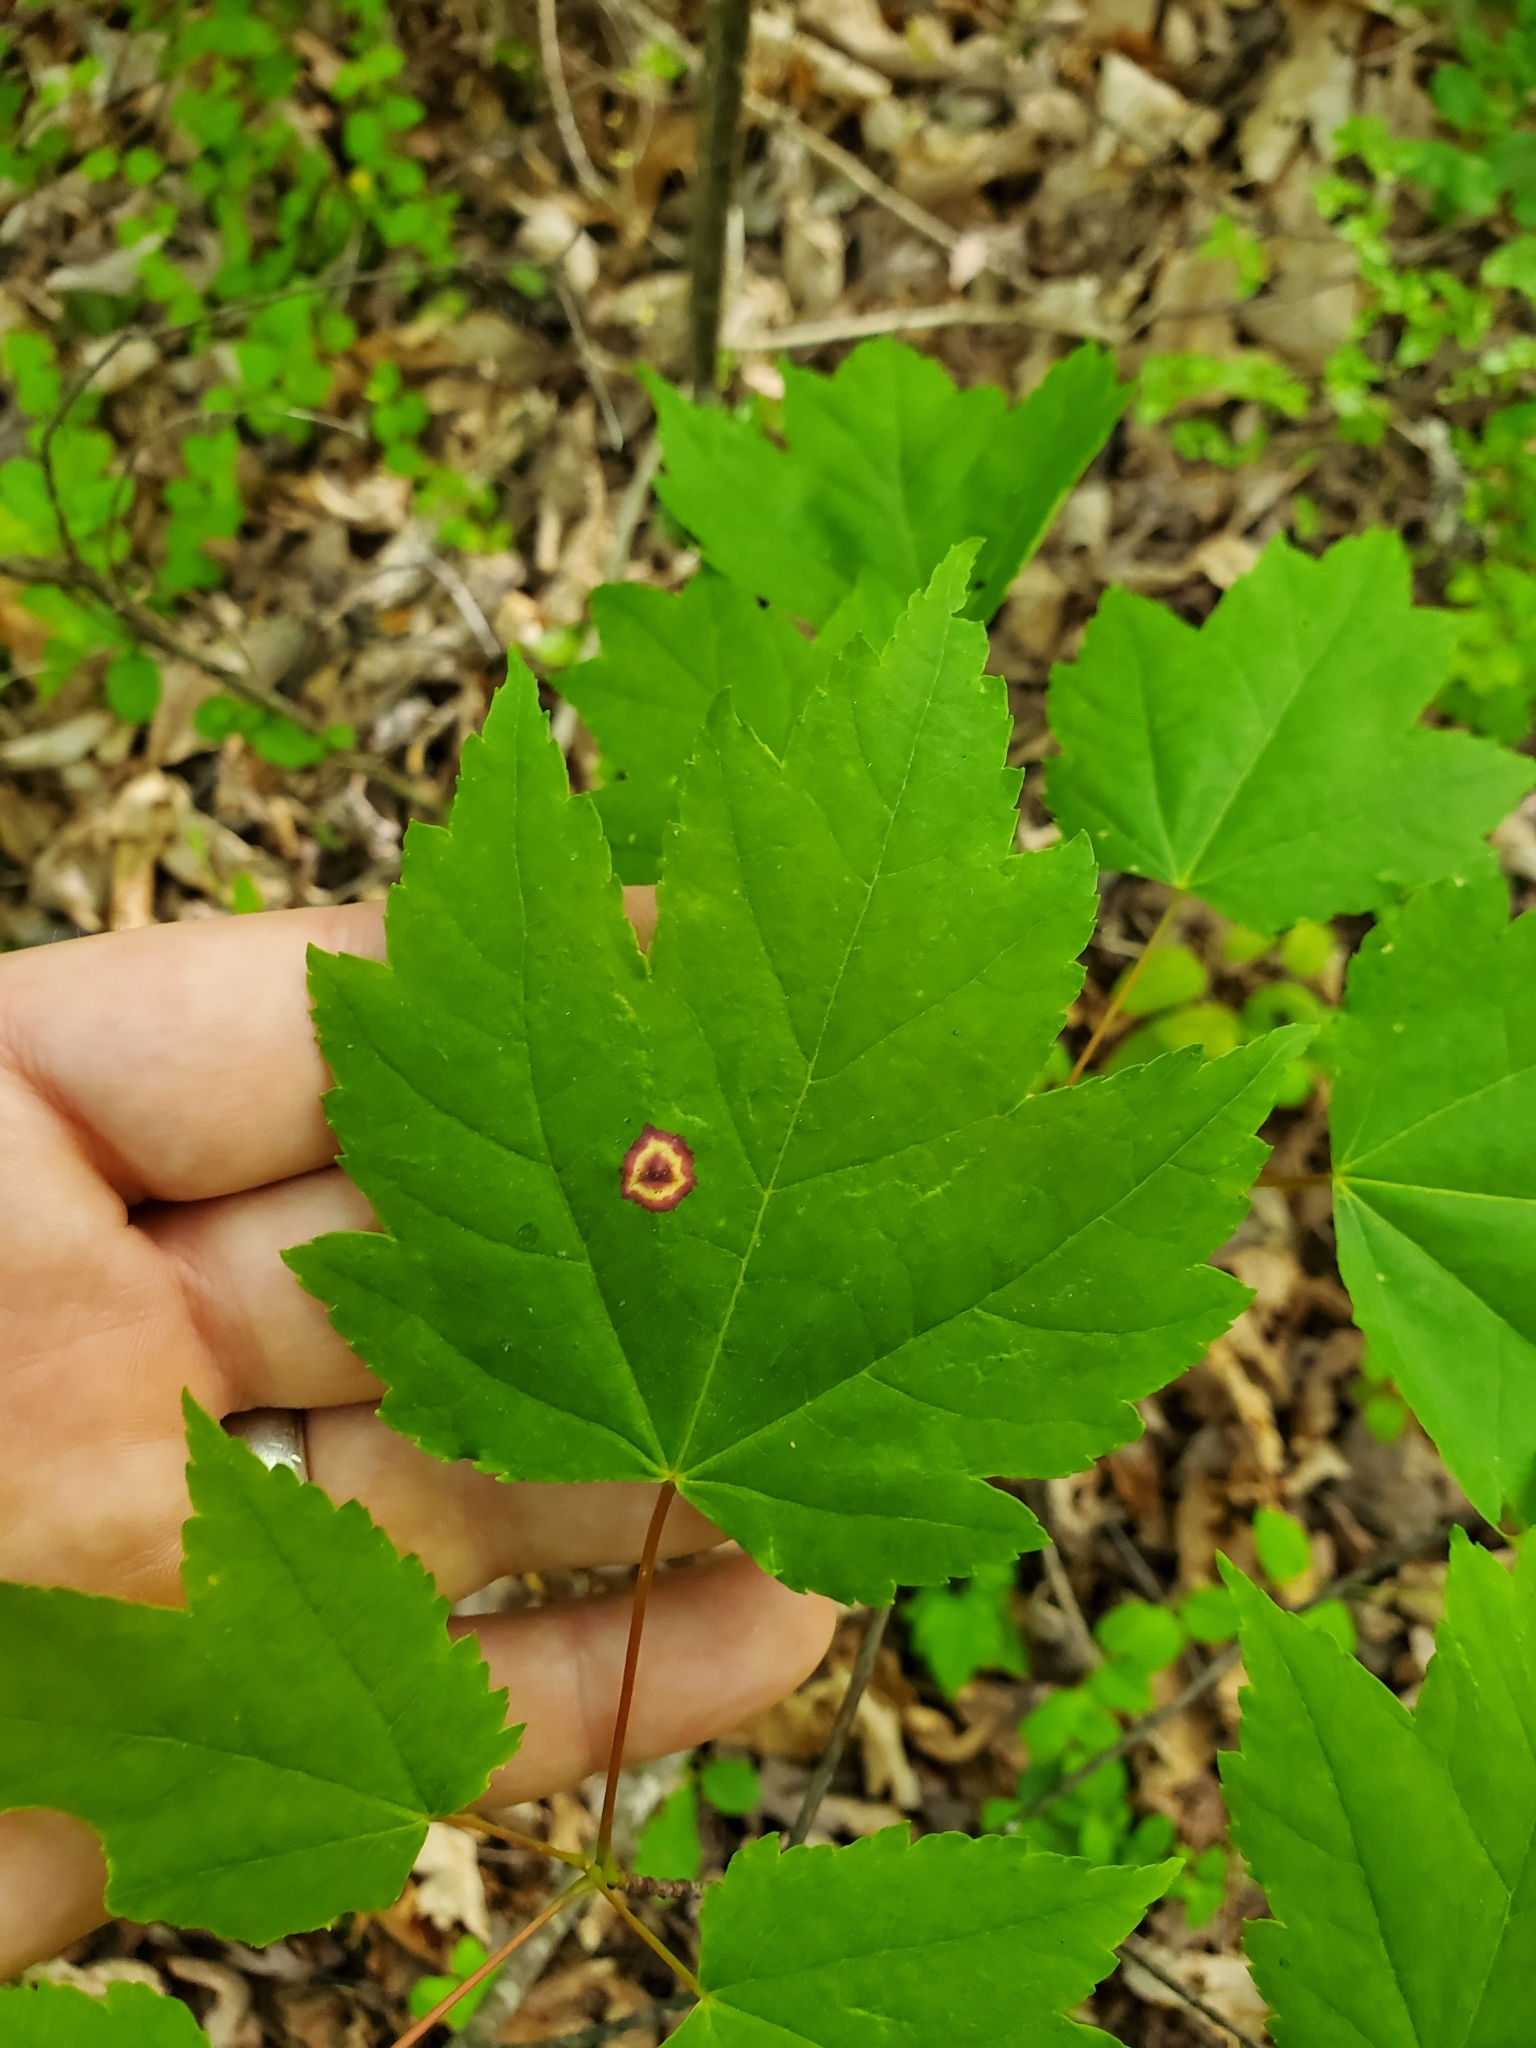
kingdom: Animalia
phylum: Arthropoda
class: Insecta
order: Diptera
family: Cecidomyiidae
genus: Acericecis
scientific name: Acericecis ocellaris
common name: Ocellate gall midge
